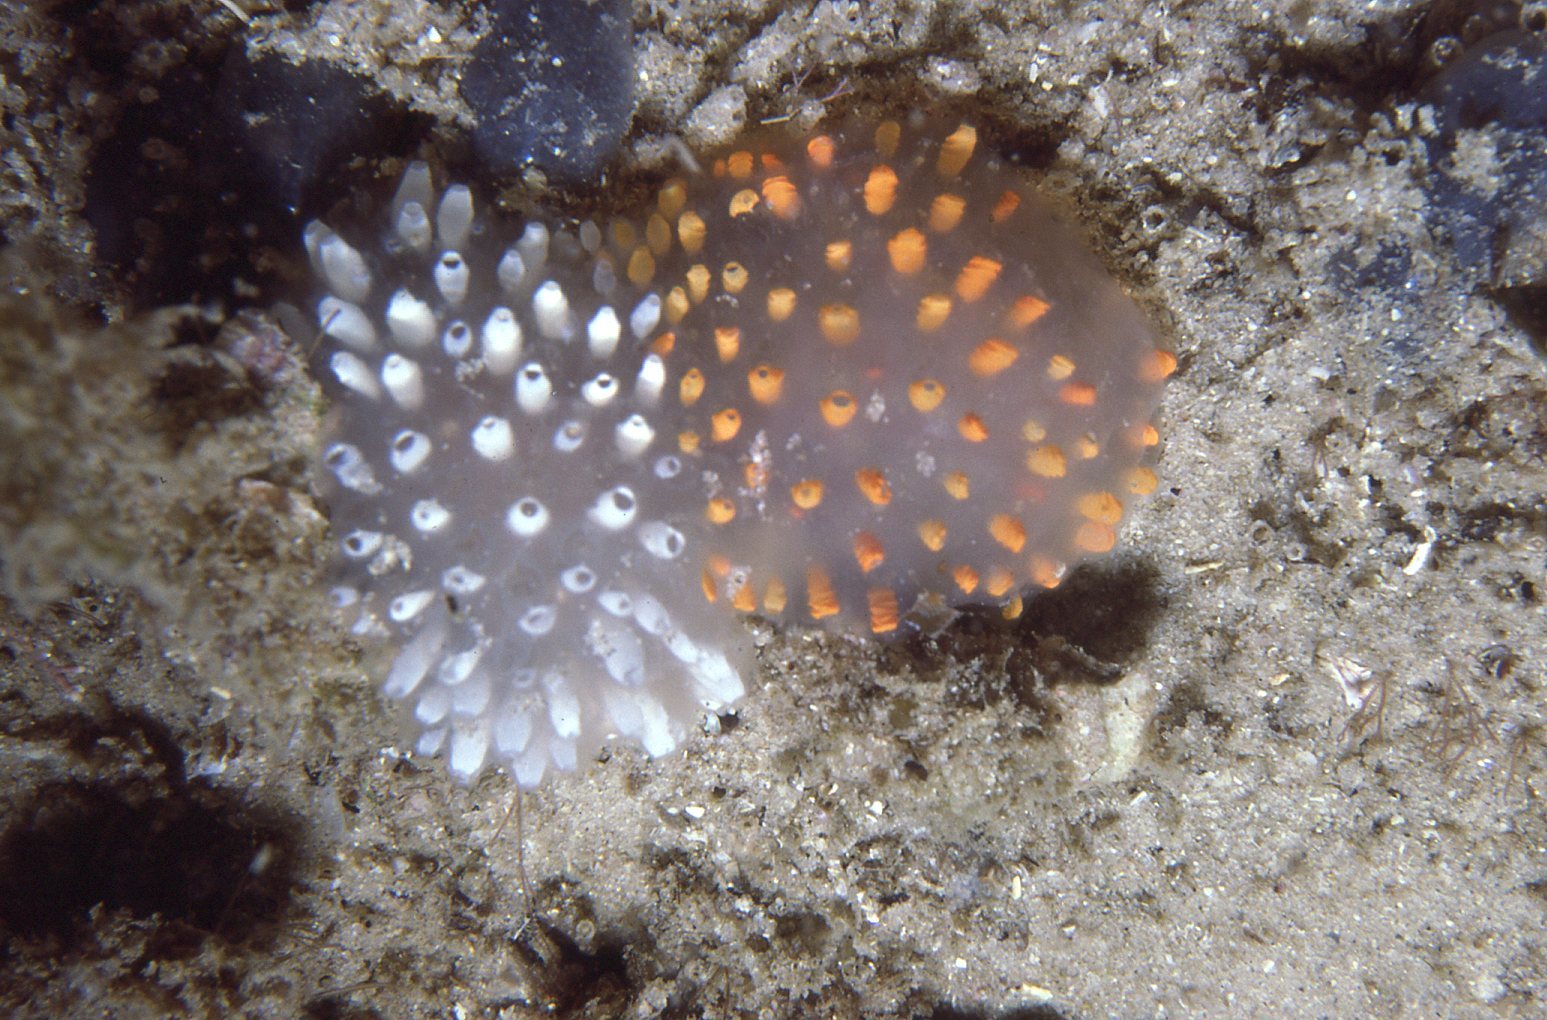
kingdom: Animalia
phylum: Chordata
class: Ascidiacea
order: Aplousobranchia
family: Polycitoridae
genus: Polycitor
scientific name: Polycitor giganteus
